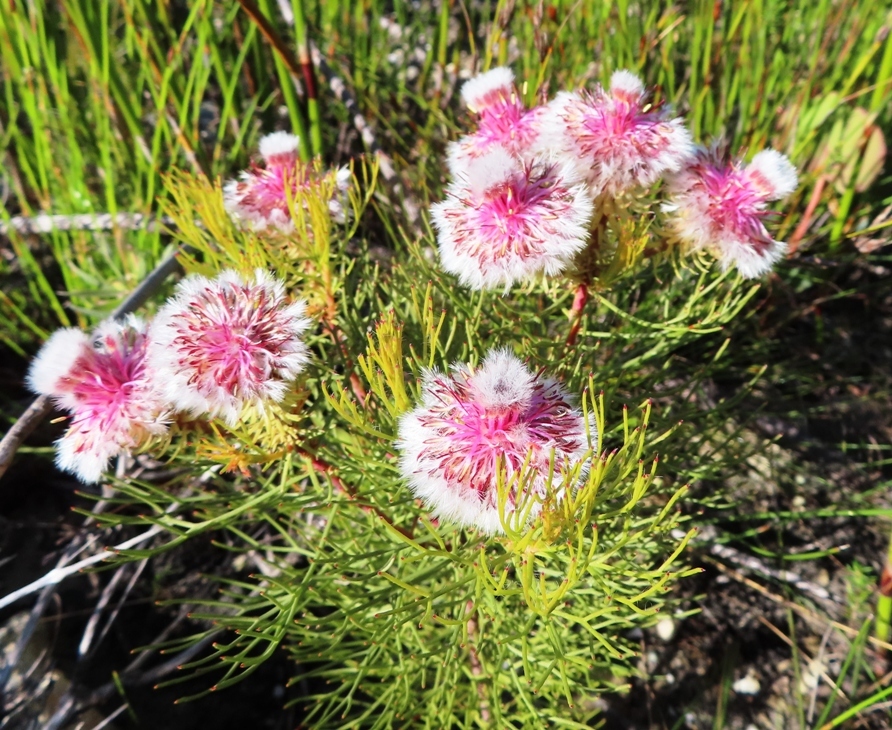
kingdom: Plantae
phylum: Tracheophyta
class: Magnoliopsida
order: Proteales
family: Proteaceae
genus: Serruria
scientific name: Serruria phylicoides
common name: Bearded spiderhead
